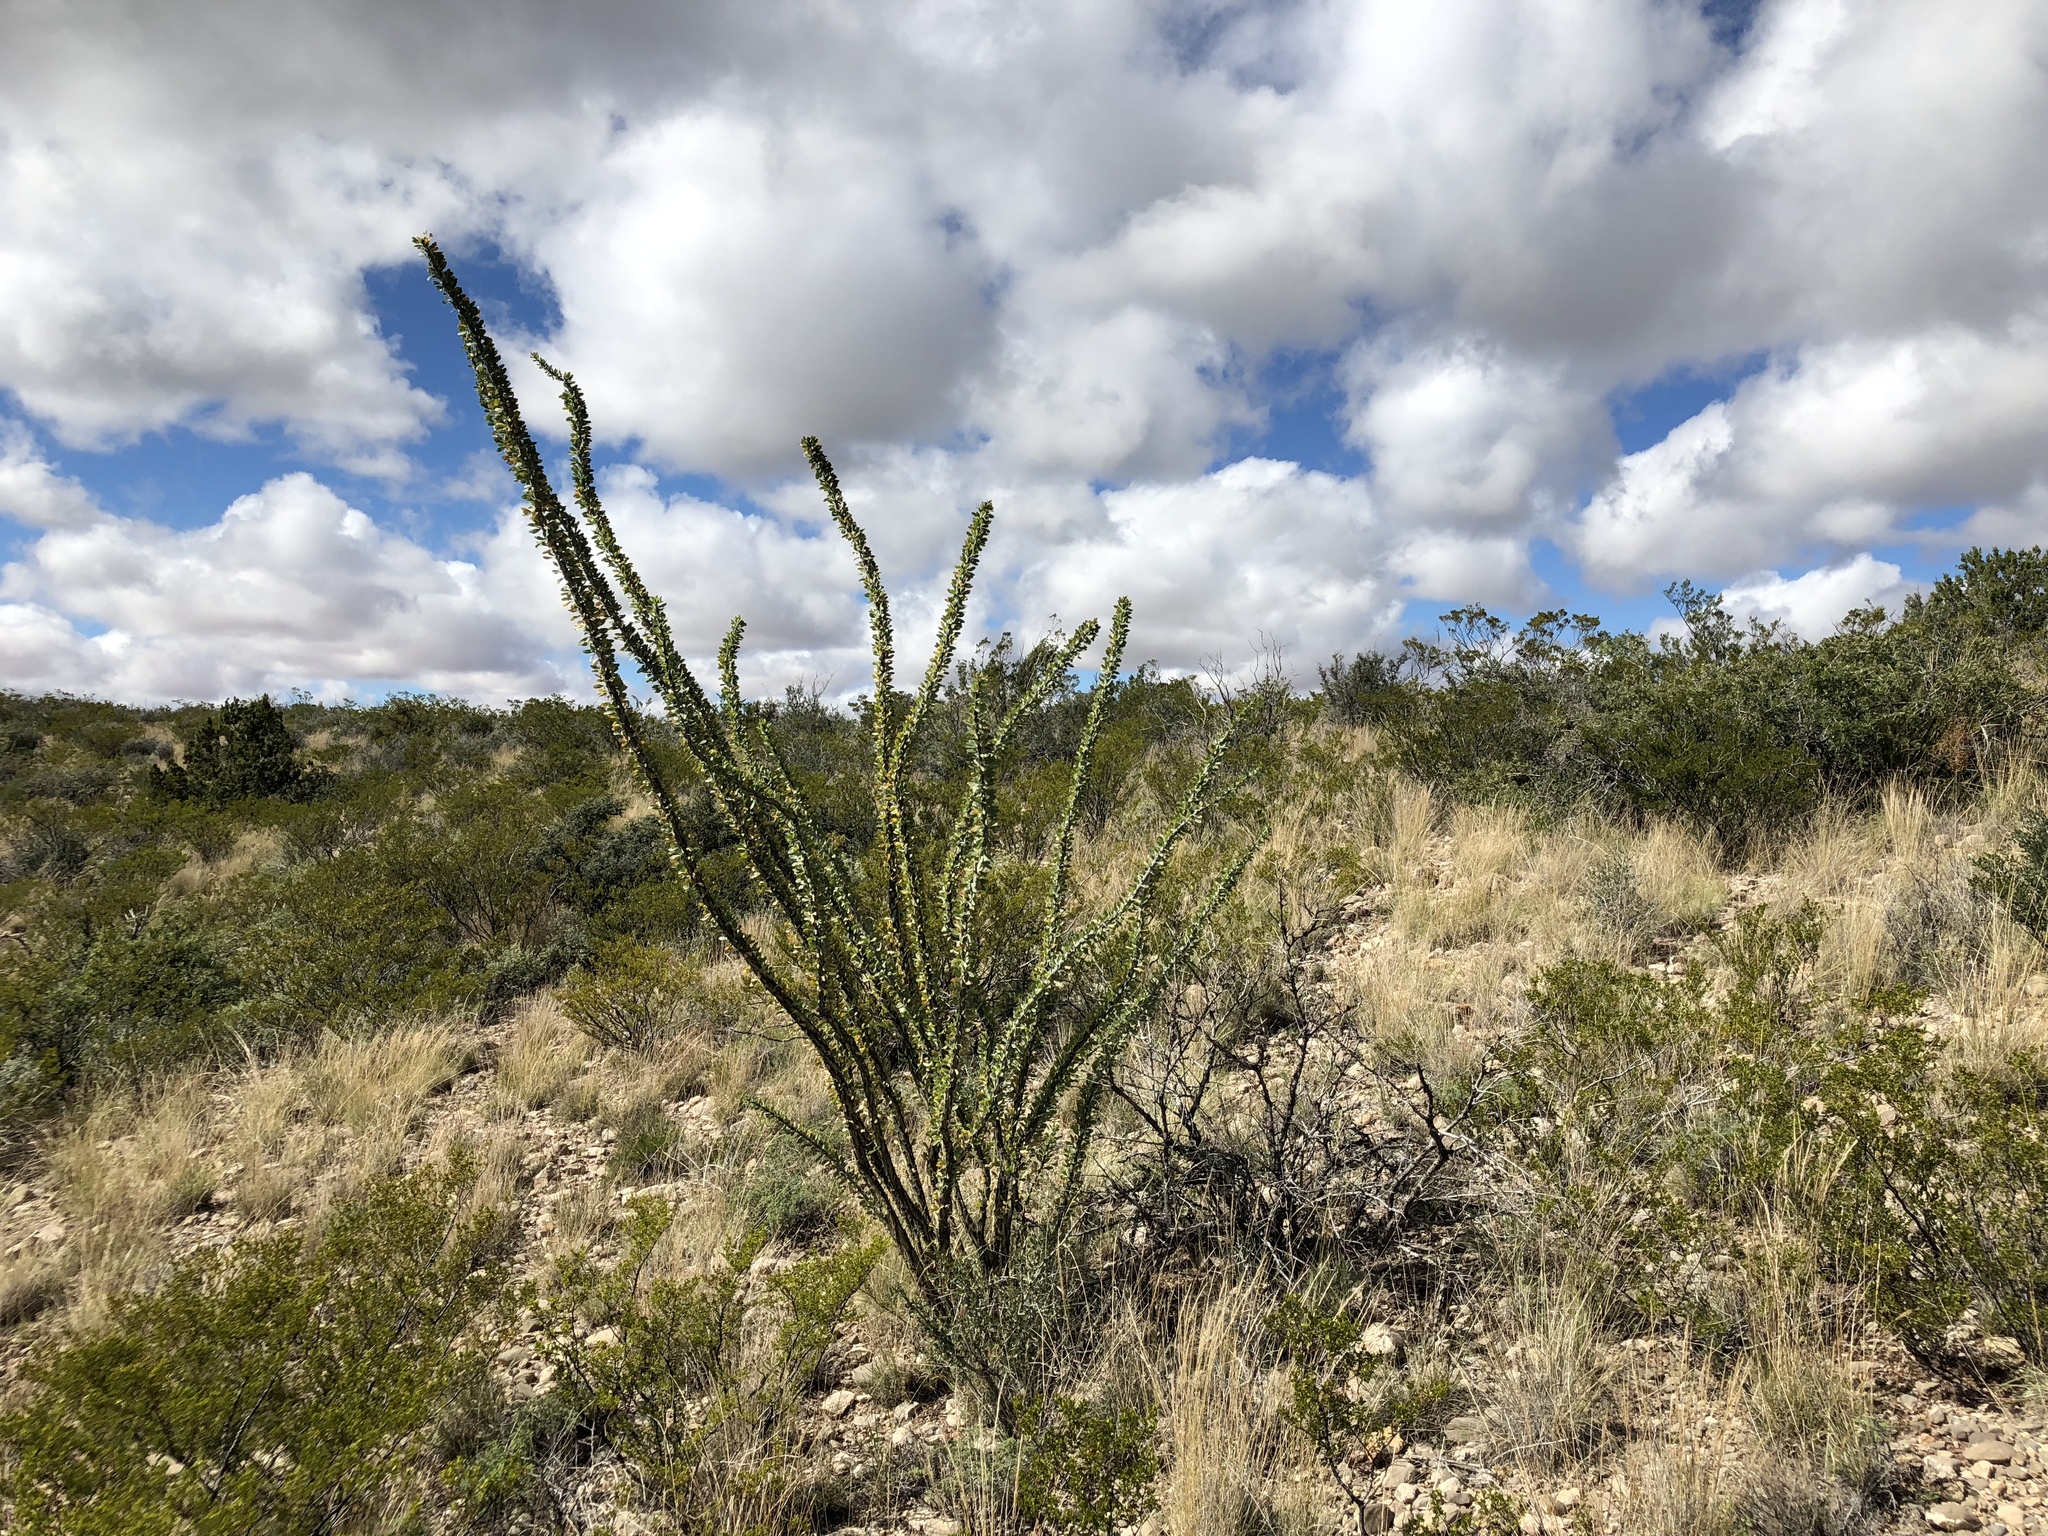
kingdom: Plantae
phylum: Tracheophyta
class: Magnoliopsida
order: Ericales
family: Fouquieriaceae
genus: Fouquieria
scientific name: Fouquieria splendens
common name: Vine-cactus
